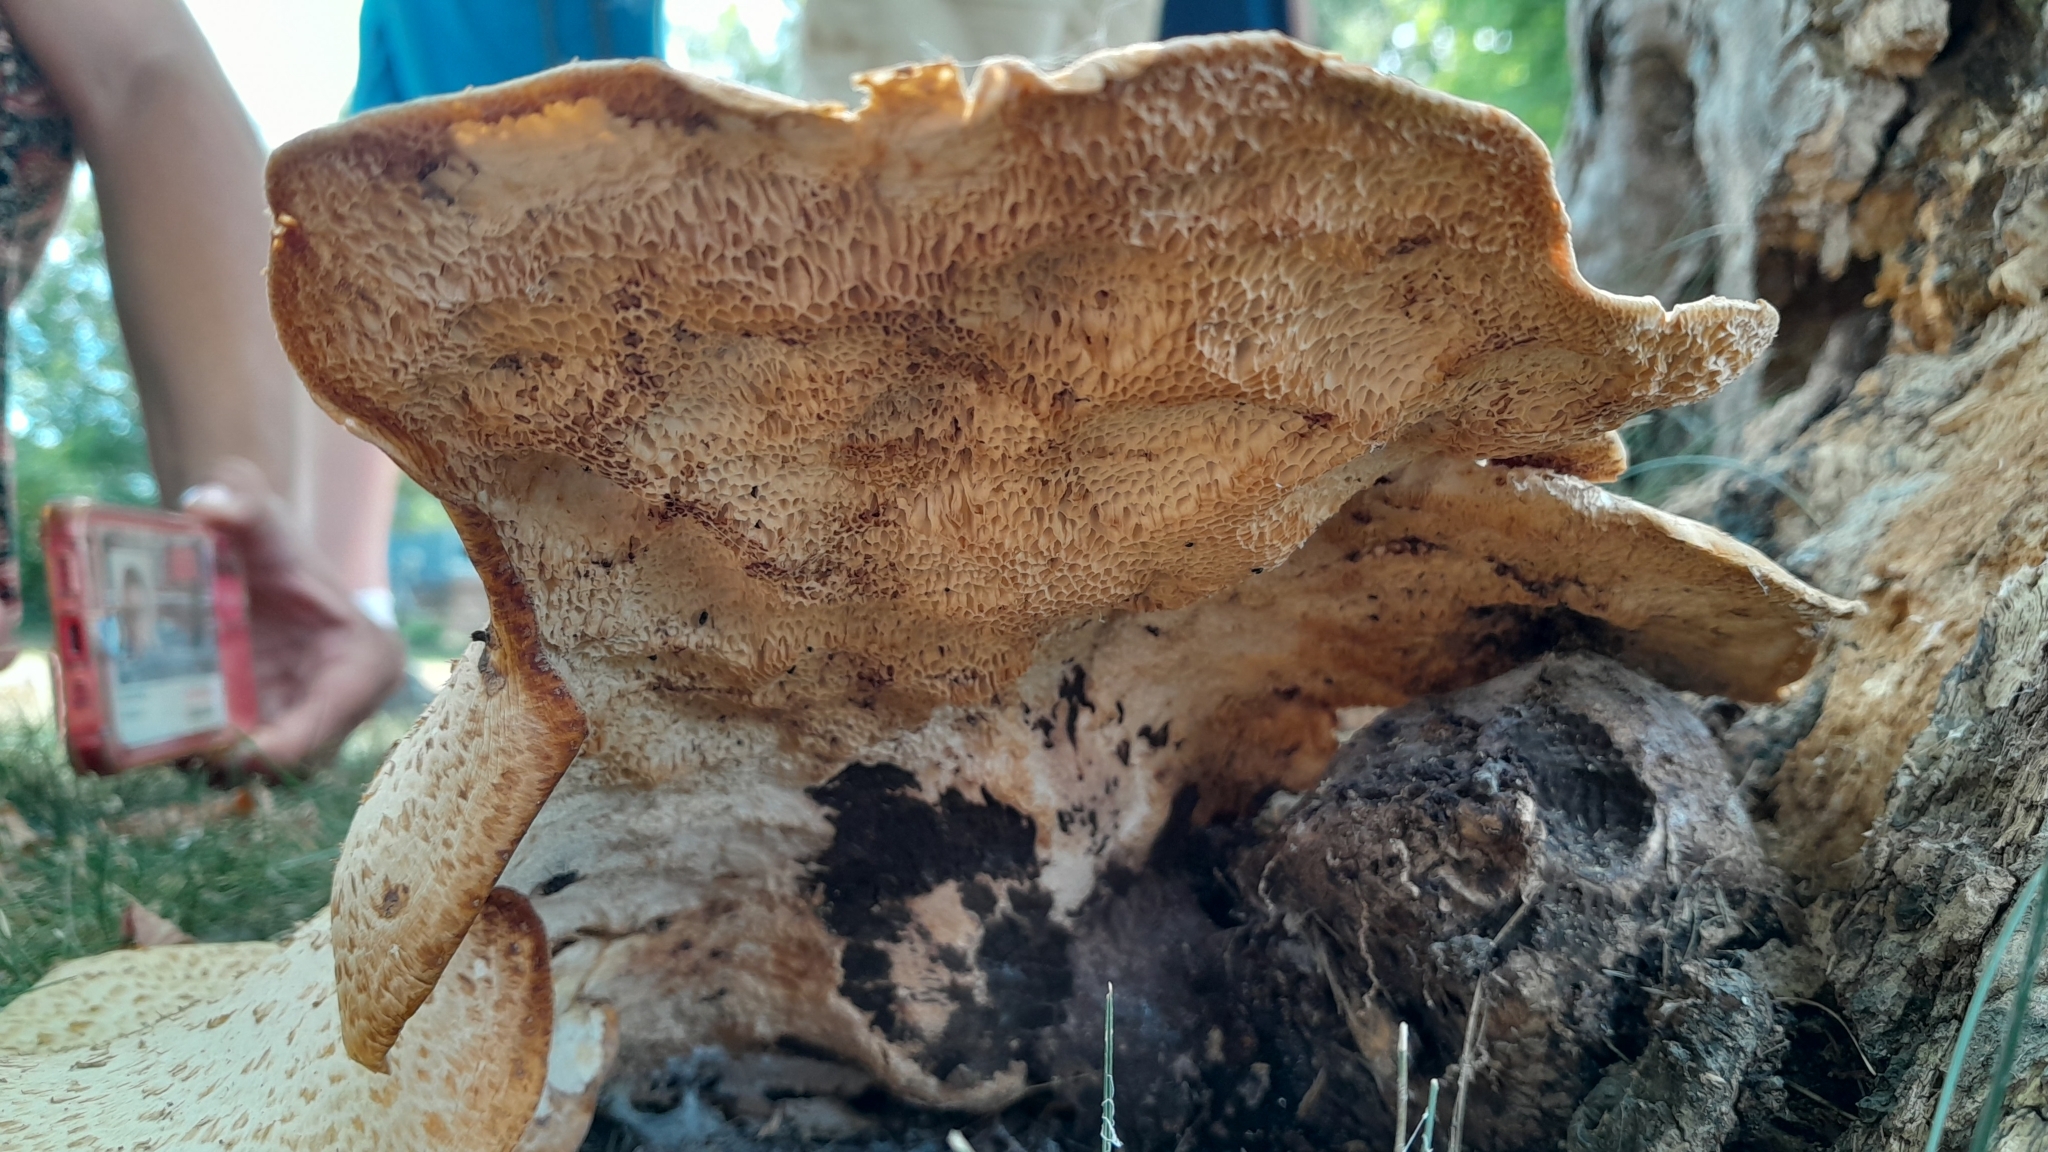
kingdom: Fungi
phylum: Basidiomycota
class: Agaricomycetes
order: Polyporales
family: Polyporaceae
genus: Cerioporus
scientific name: Cerioporus squamosus
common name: Dryad's saddle
